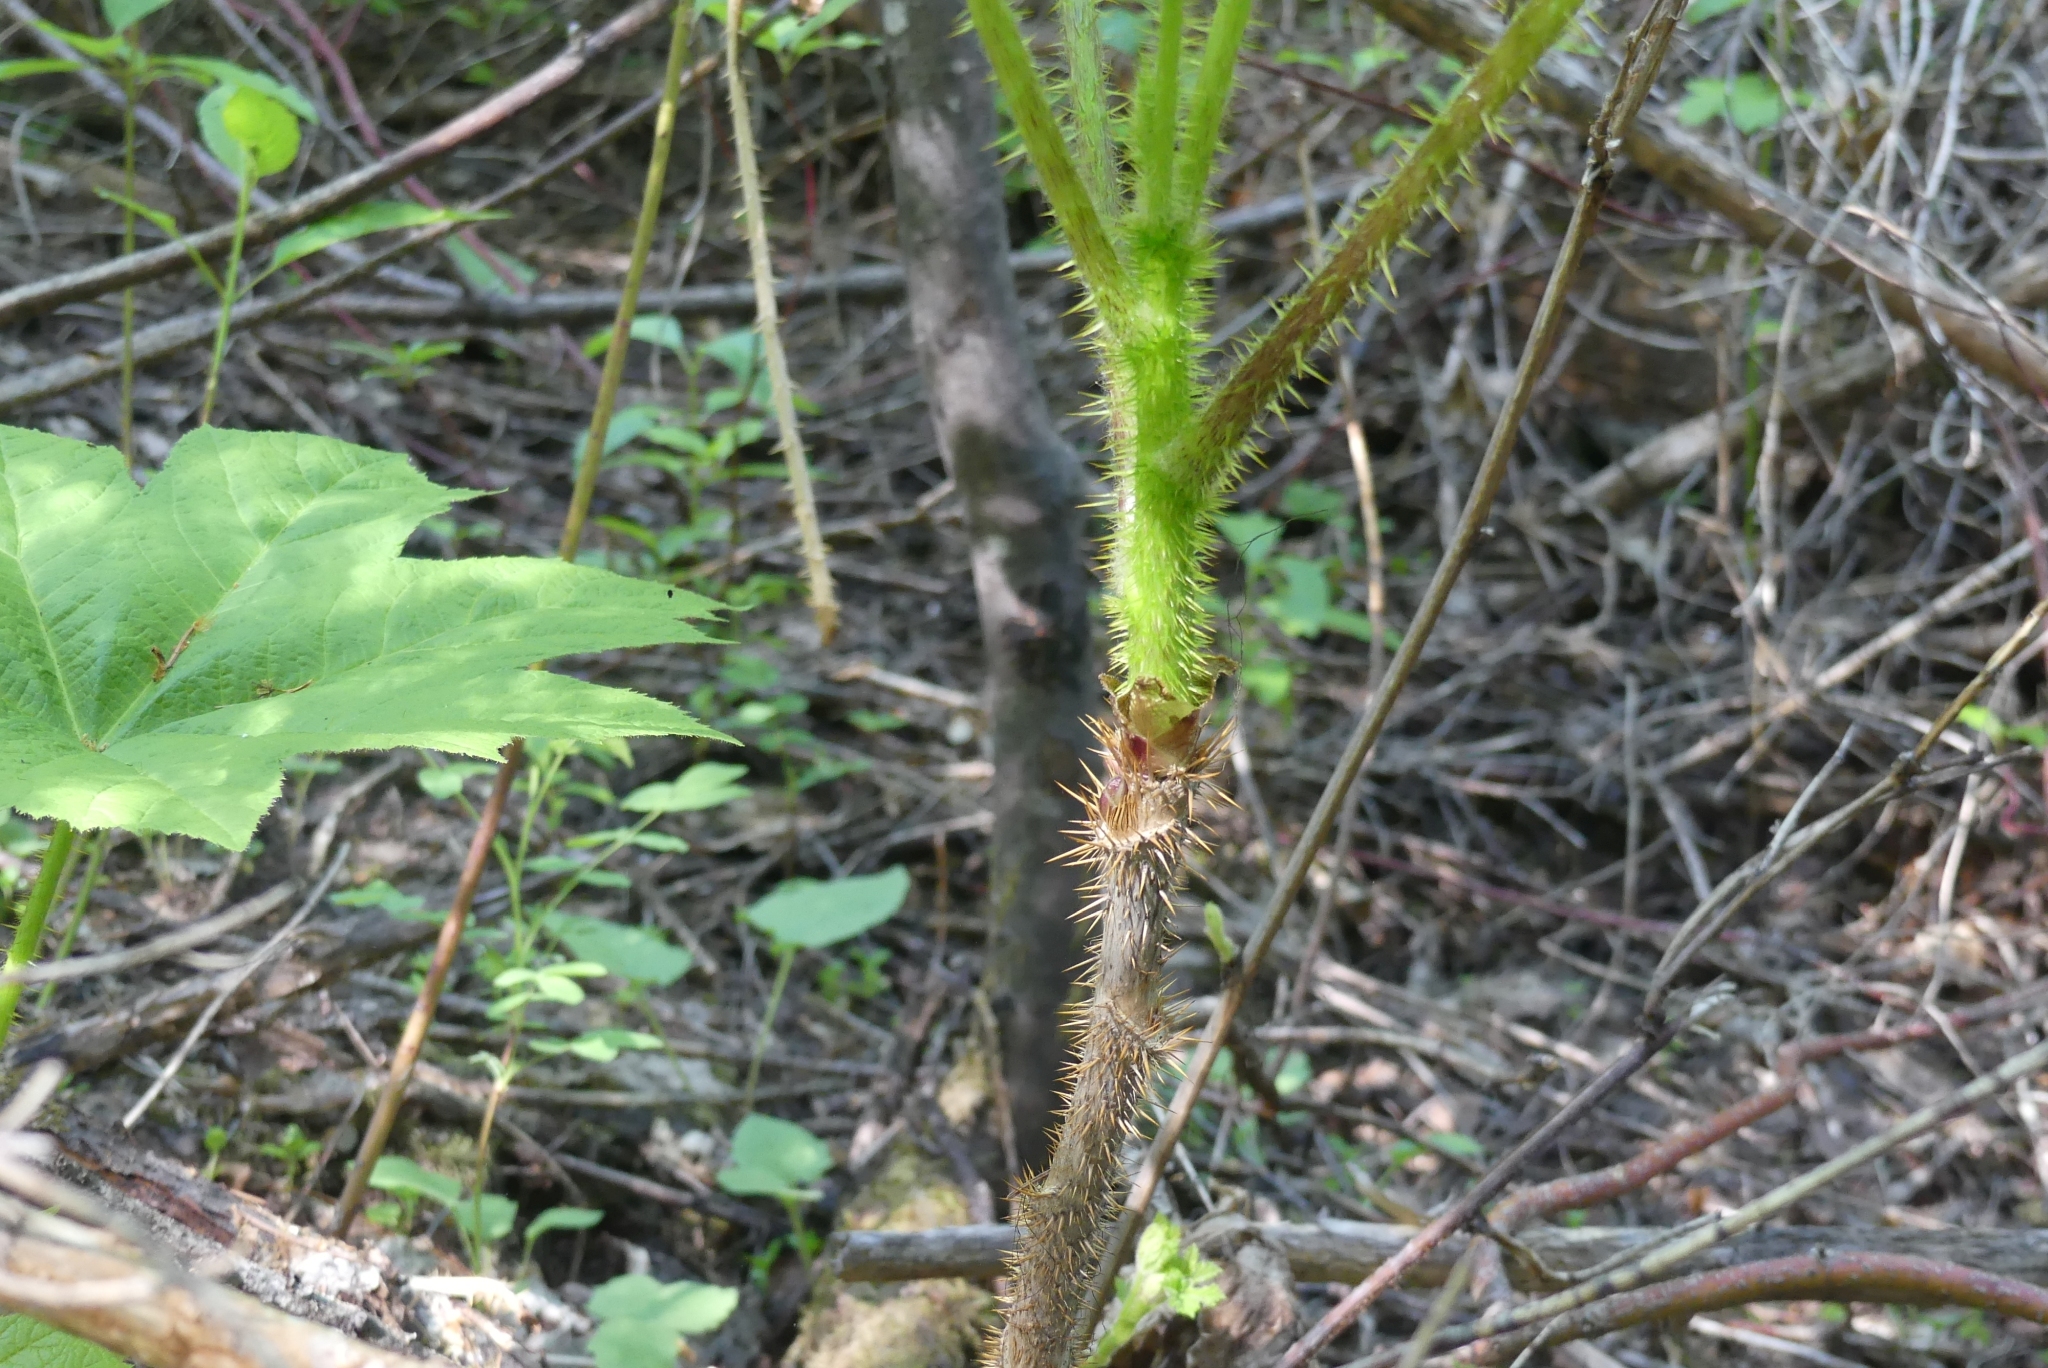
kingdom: Plantae
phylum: Tracheophyta
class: Magnoliopsida
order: Apiales
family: Araliaceae
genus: Oplopanax
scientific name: Oplopanax horridus
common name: Devil's walking-stick
